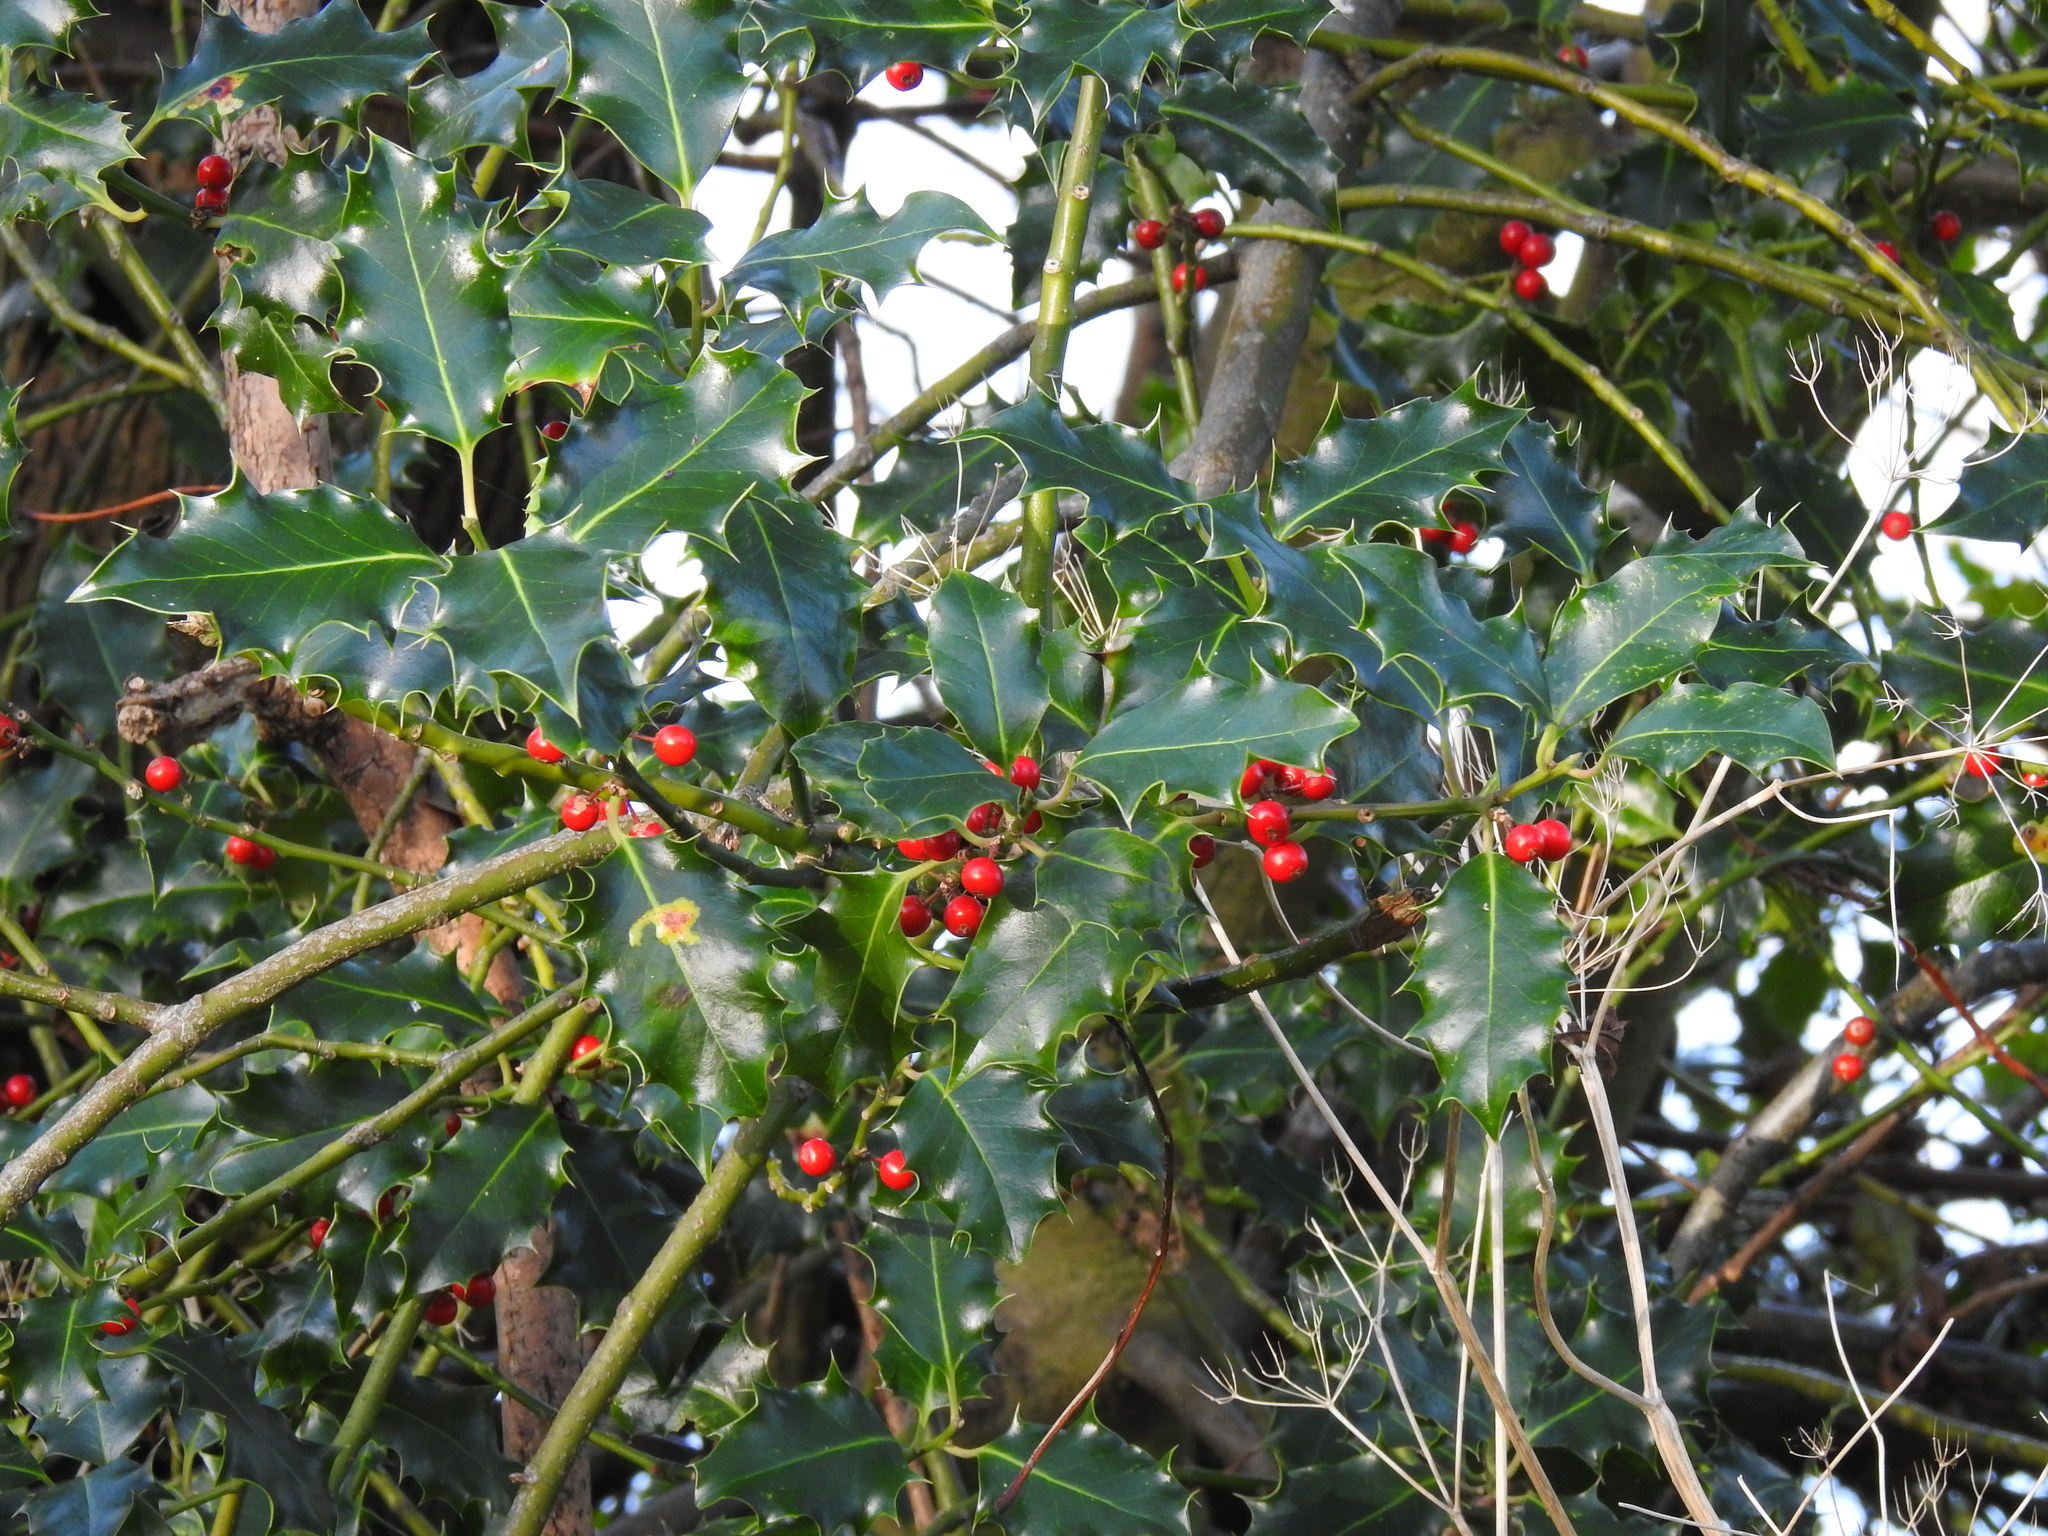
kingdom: Plantae
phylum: Tracheophyta
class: Magnoliopsida
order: Aquifoliales
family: Aquifoliaceae
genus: Ilex
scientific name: Ilex aquifolium
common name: English holly
